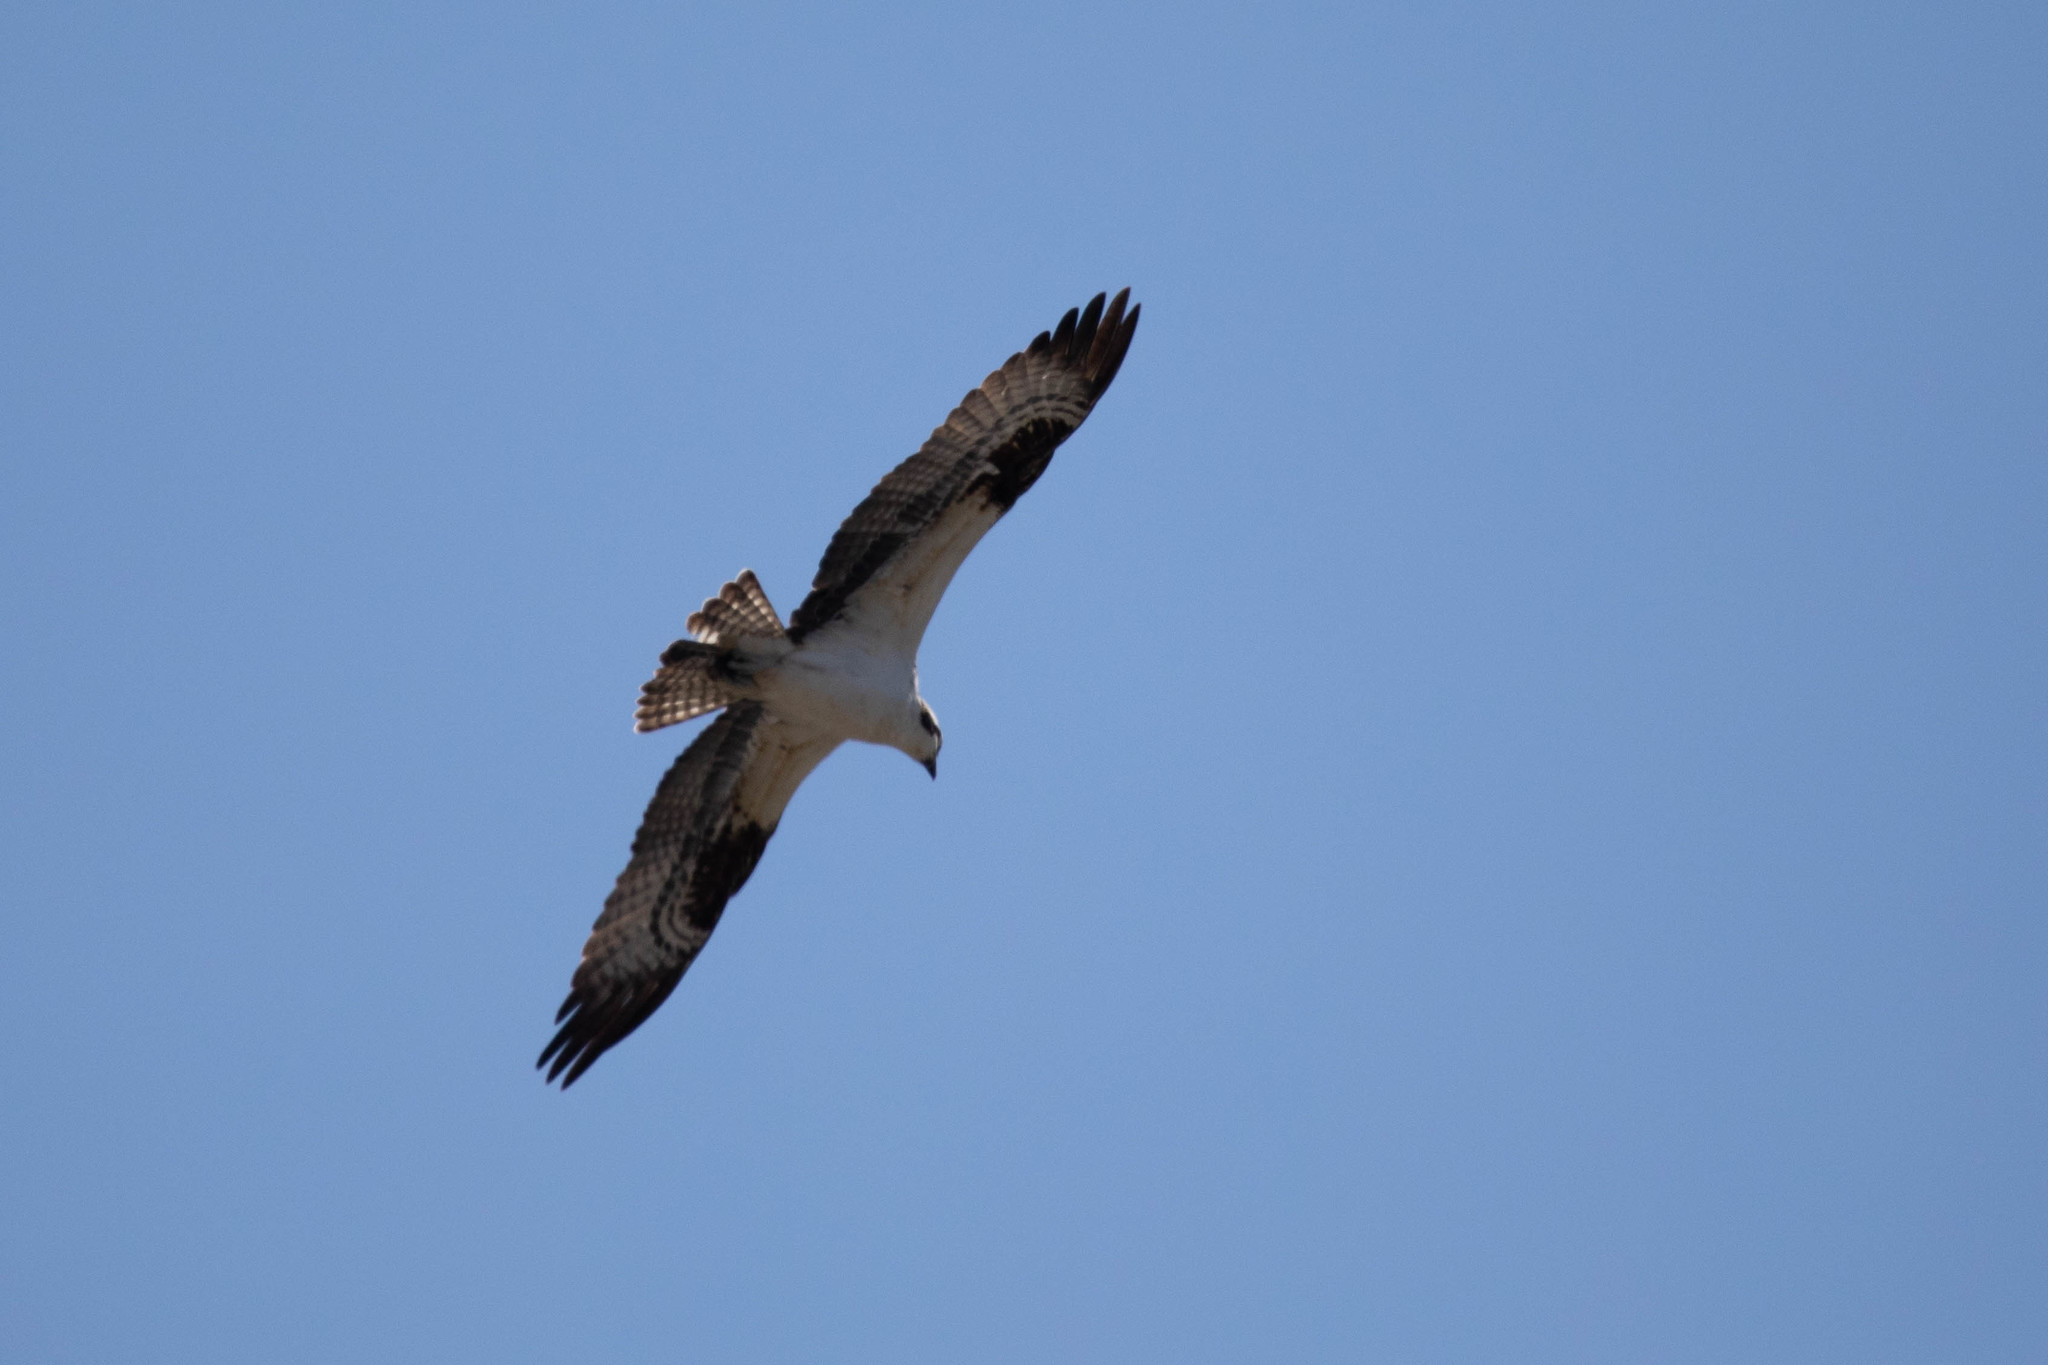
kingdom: Animalia
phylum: Chordata
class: Aves
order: Accipitriformes
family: Pandionidae
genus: Pandion
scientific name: Pandion haliaetus
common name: Osprey
